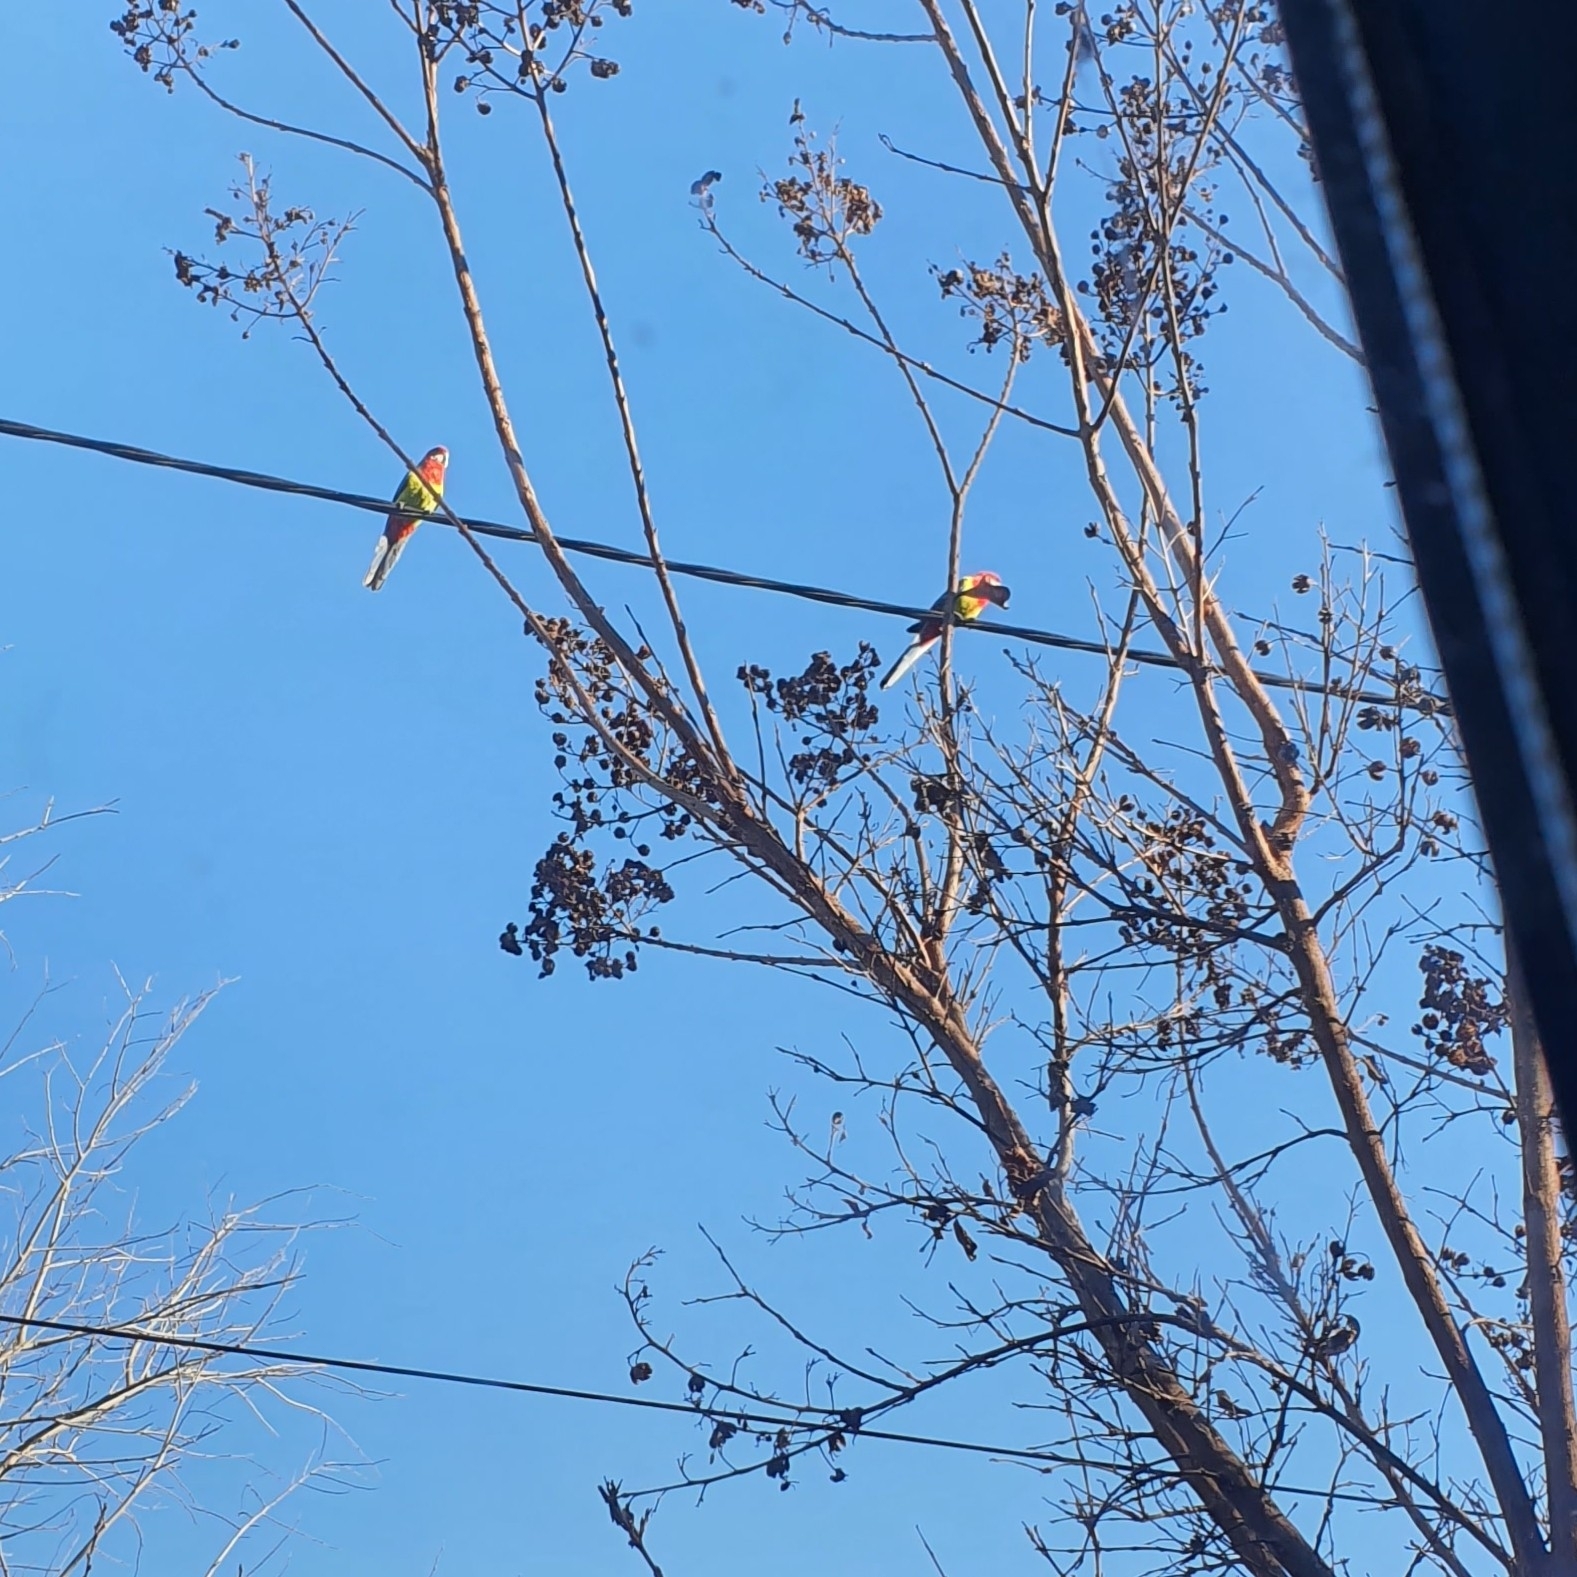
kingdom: Animalia
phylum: Chordata
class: Aves
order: Psittaciformes
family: Psittacidae
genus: Platycercus
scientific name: Platycercus eximius
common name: Eastern rosella
